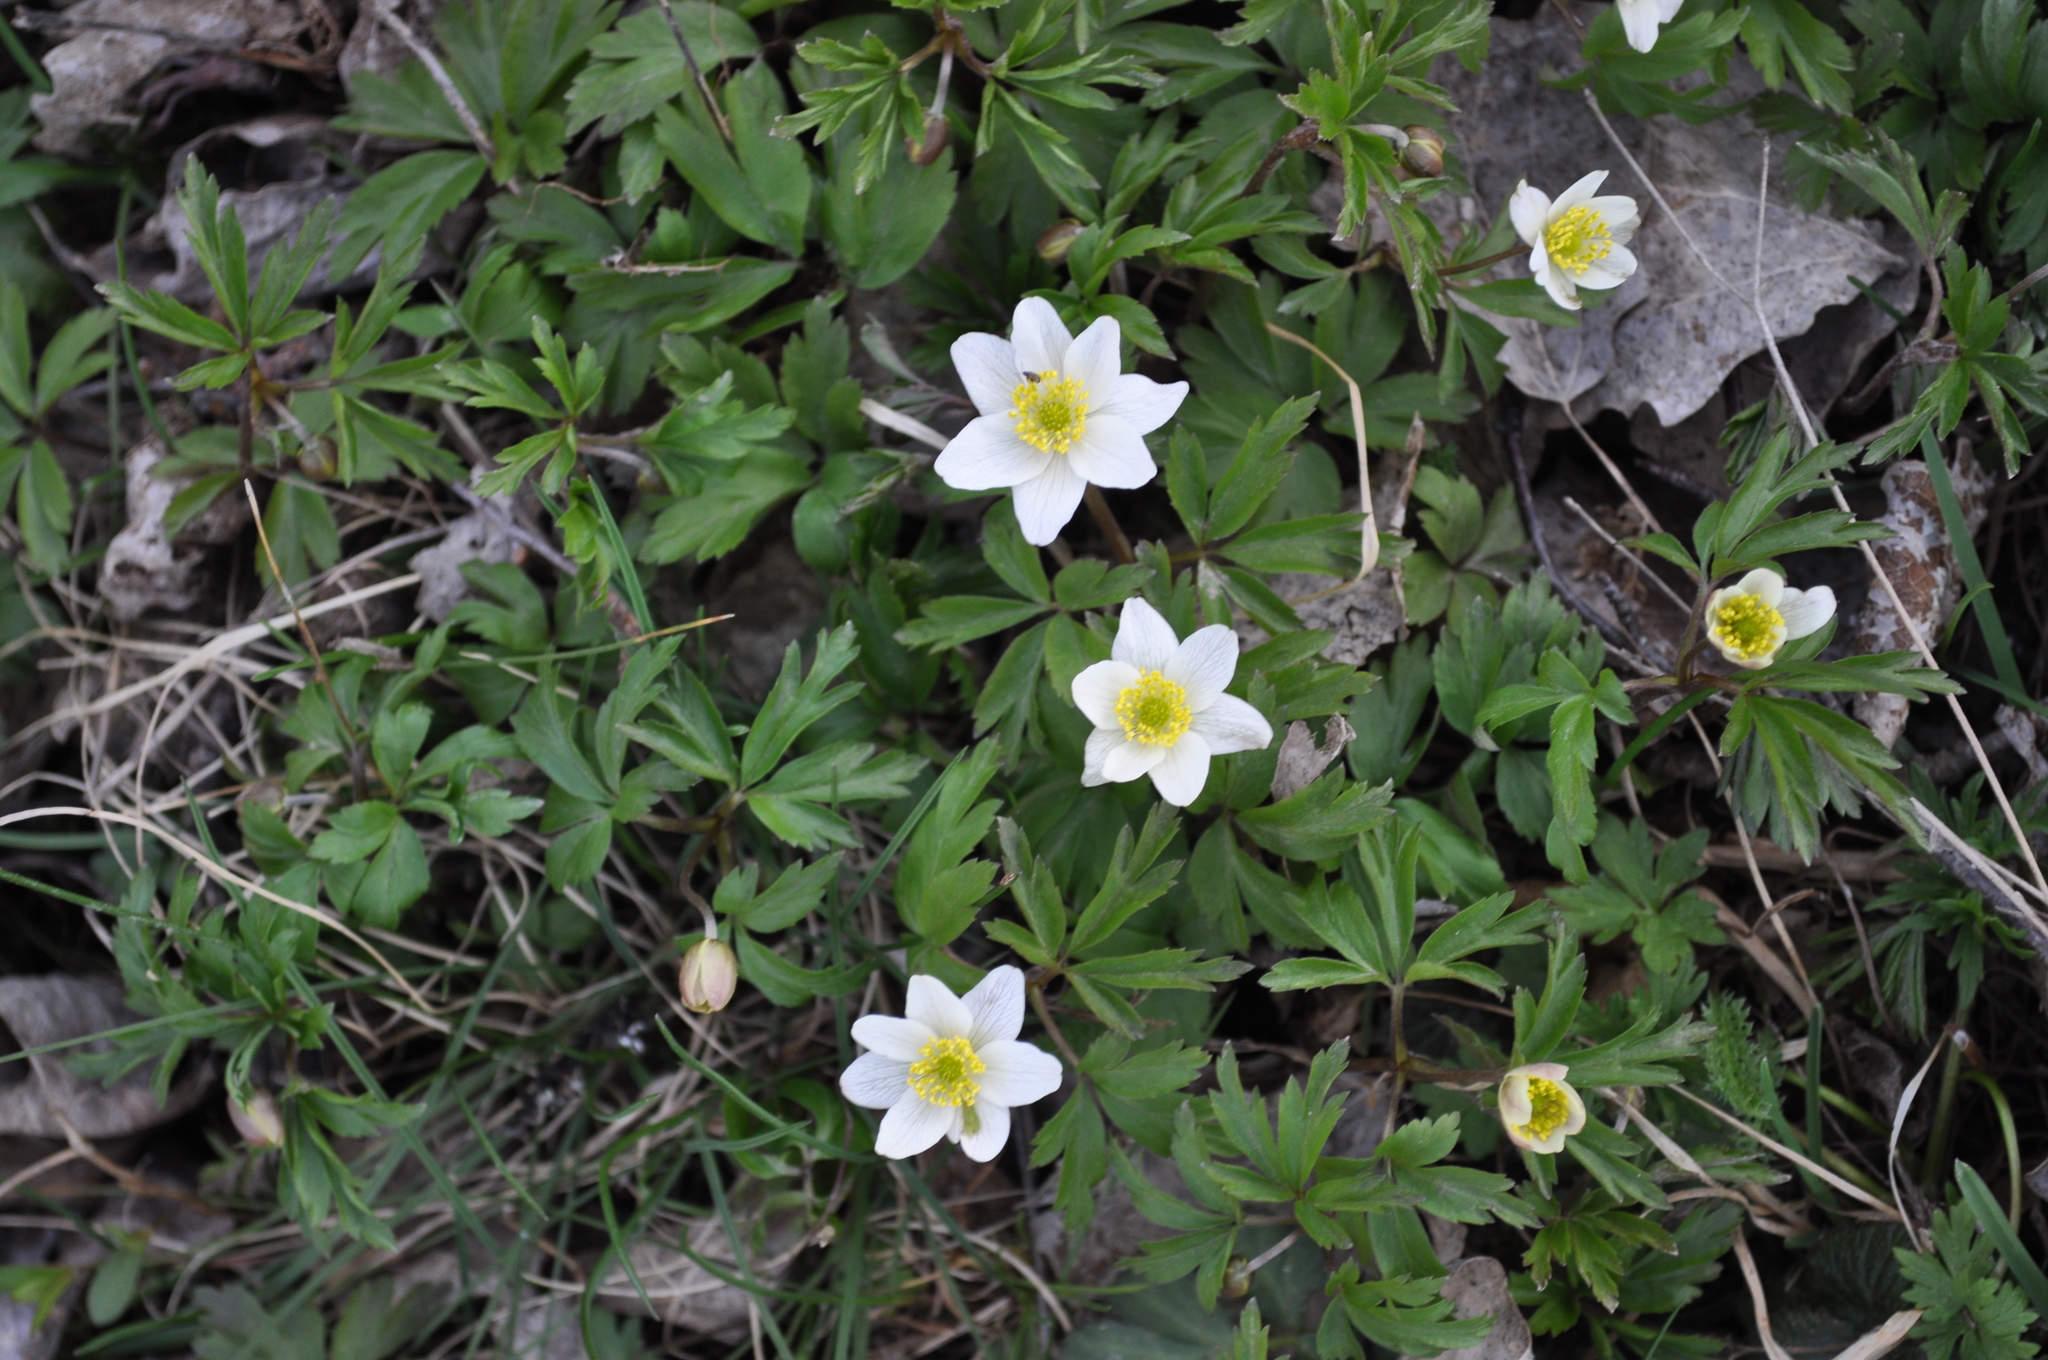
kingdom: Plantae
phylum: Tracheophyta
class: Magnoliopsida
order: Ranunculales
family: Ranunculaceae
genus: Anemone
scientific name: Anemone nemorosa
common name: Wood anemone
